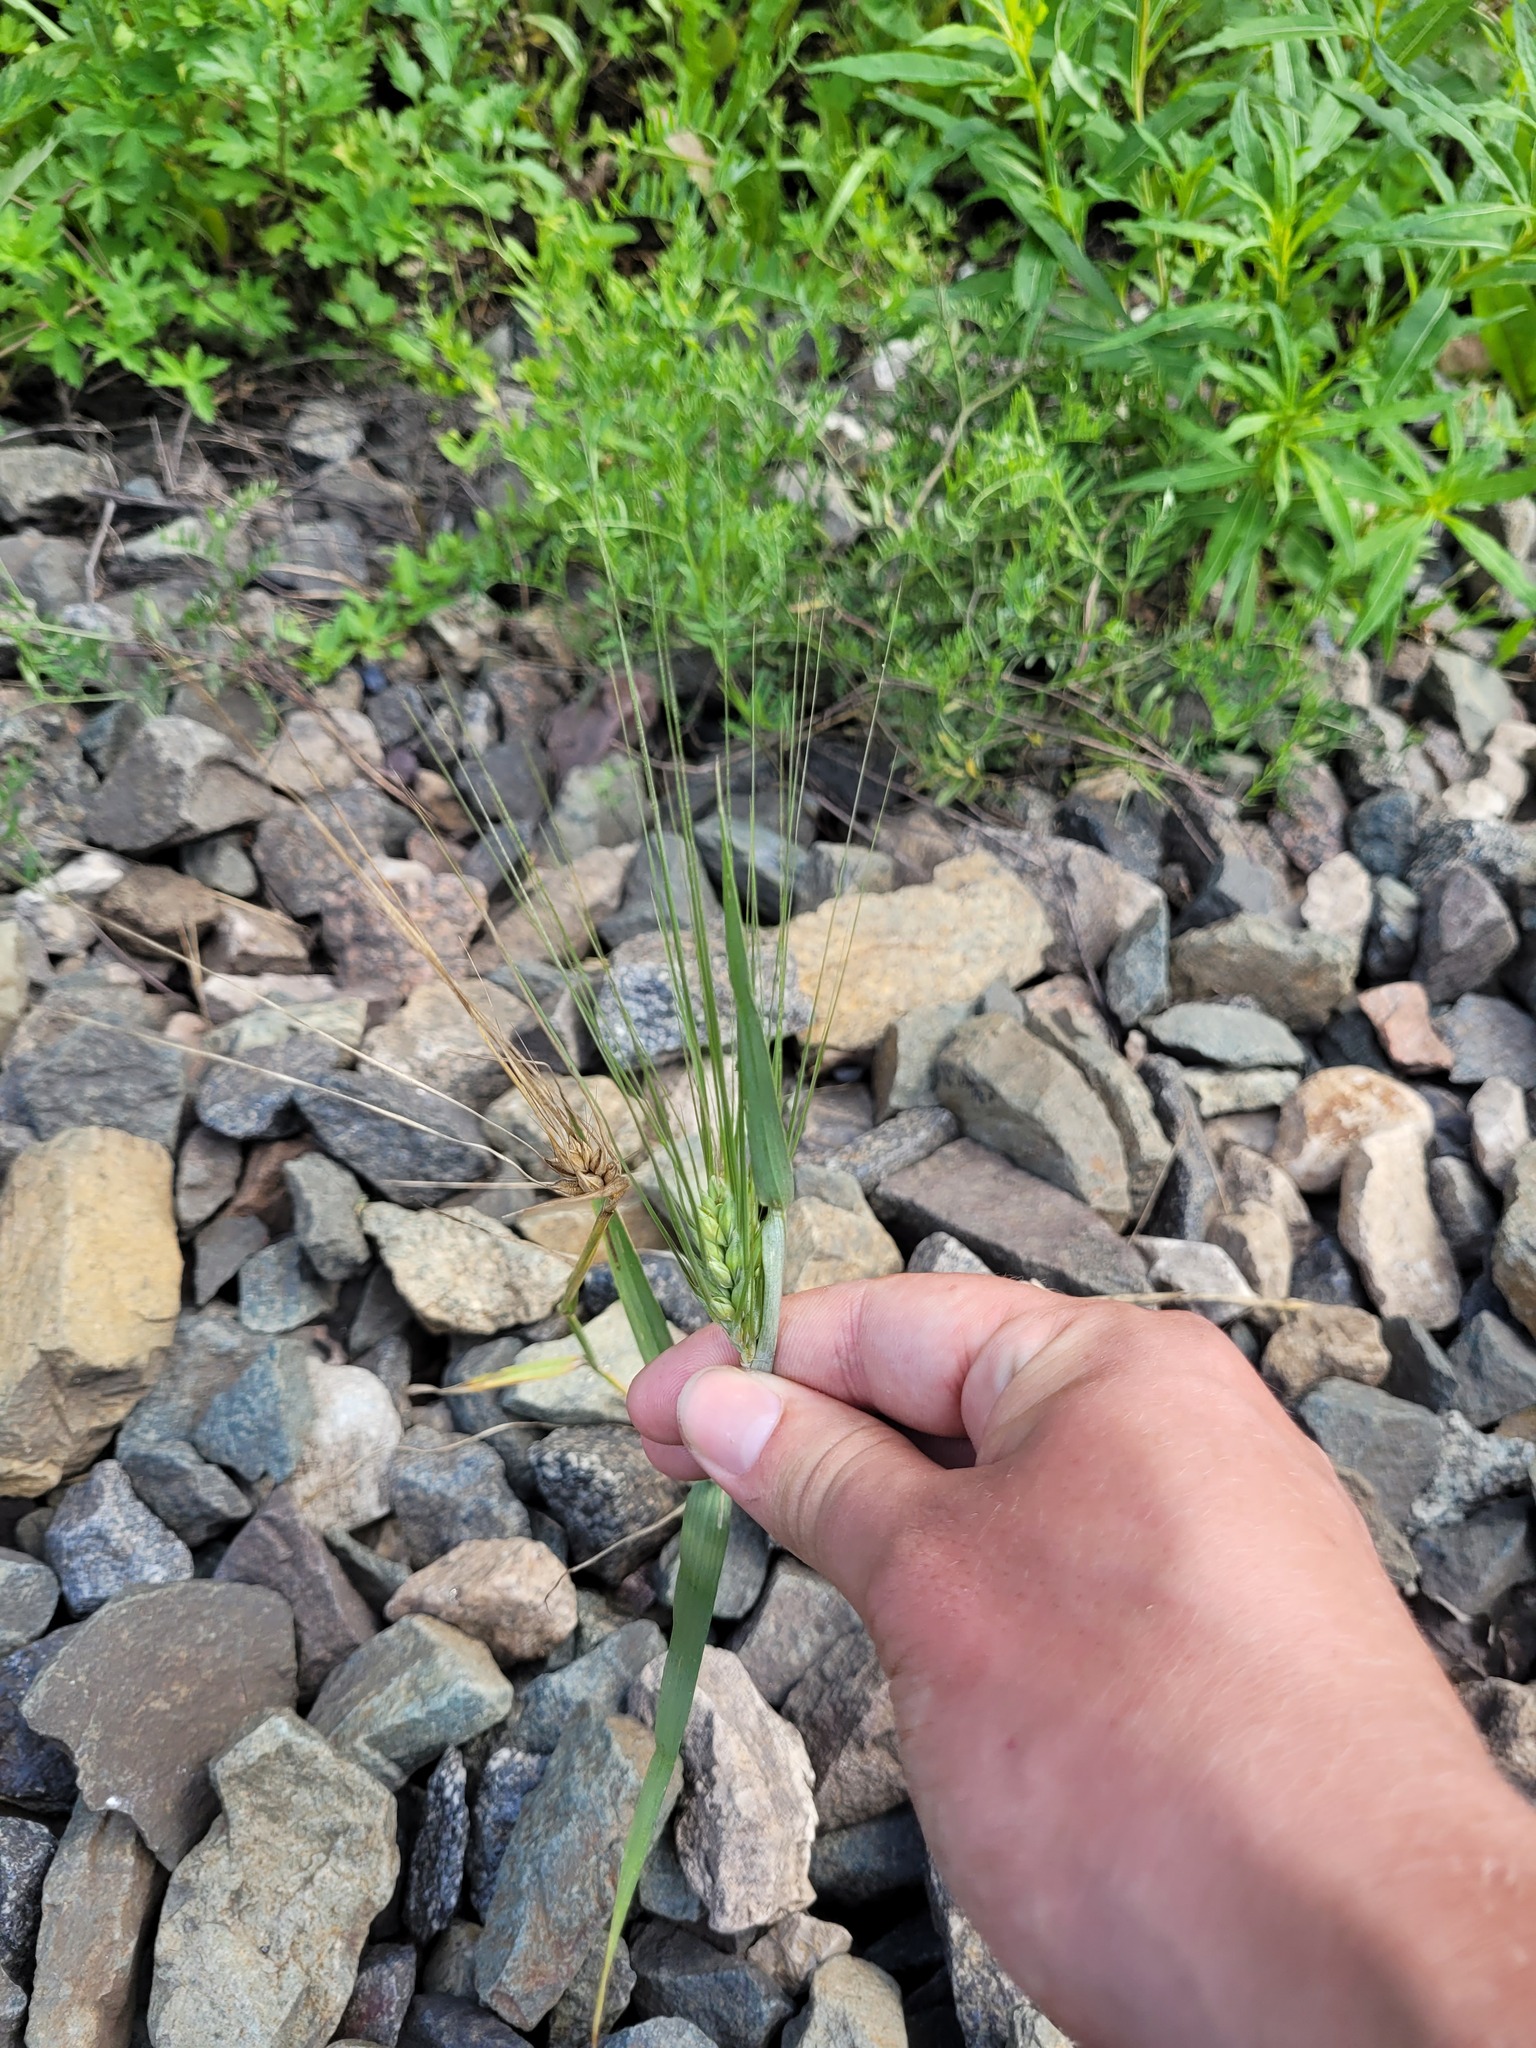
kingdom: Plantae
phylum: Tracheophyta
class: Liliopsida
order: Poales
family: Poaceae
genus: Hordeum
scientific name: Hordeum vulgare
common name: Common barley
